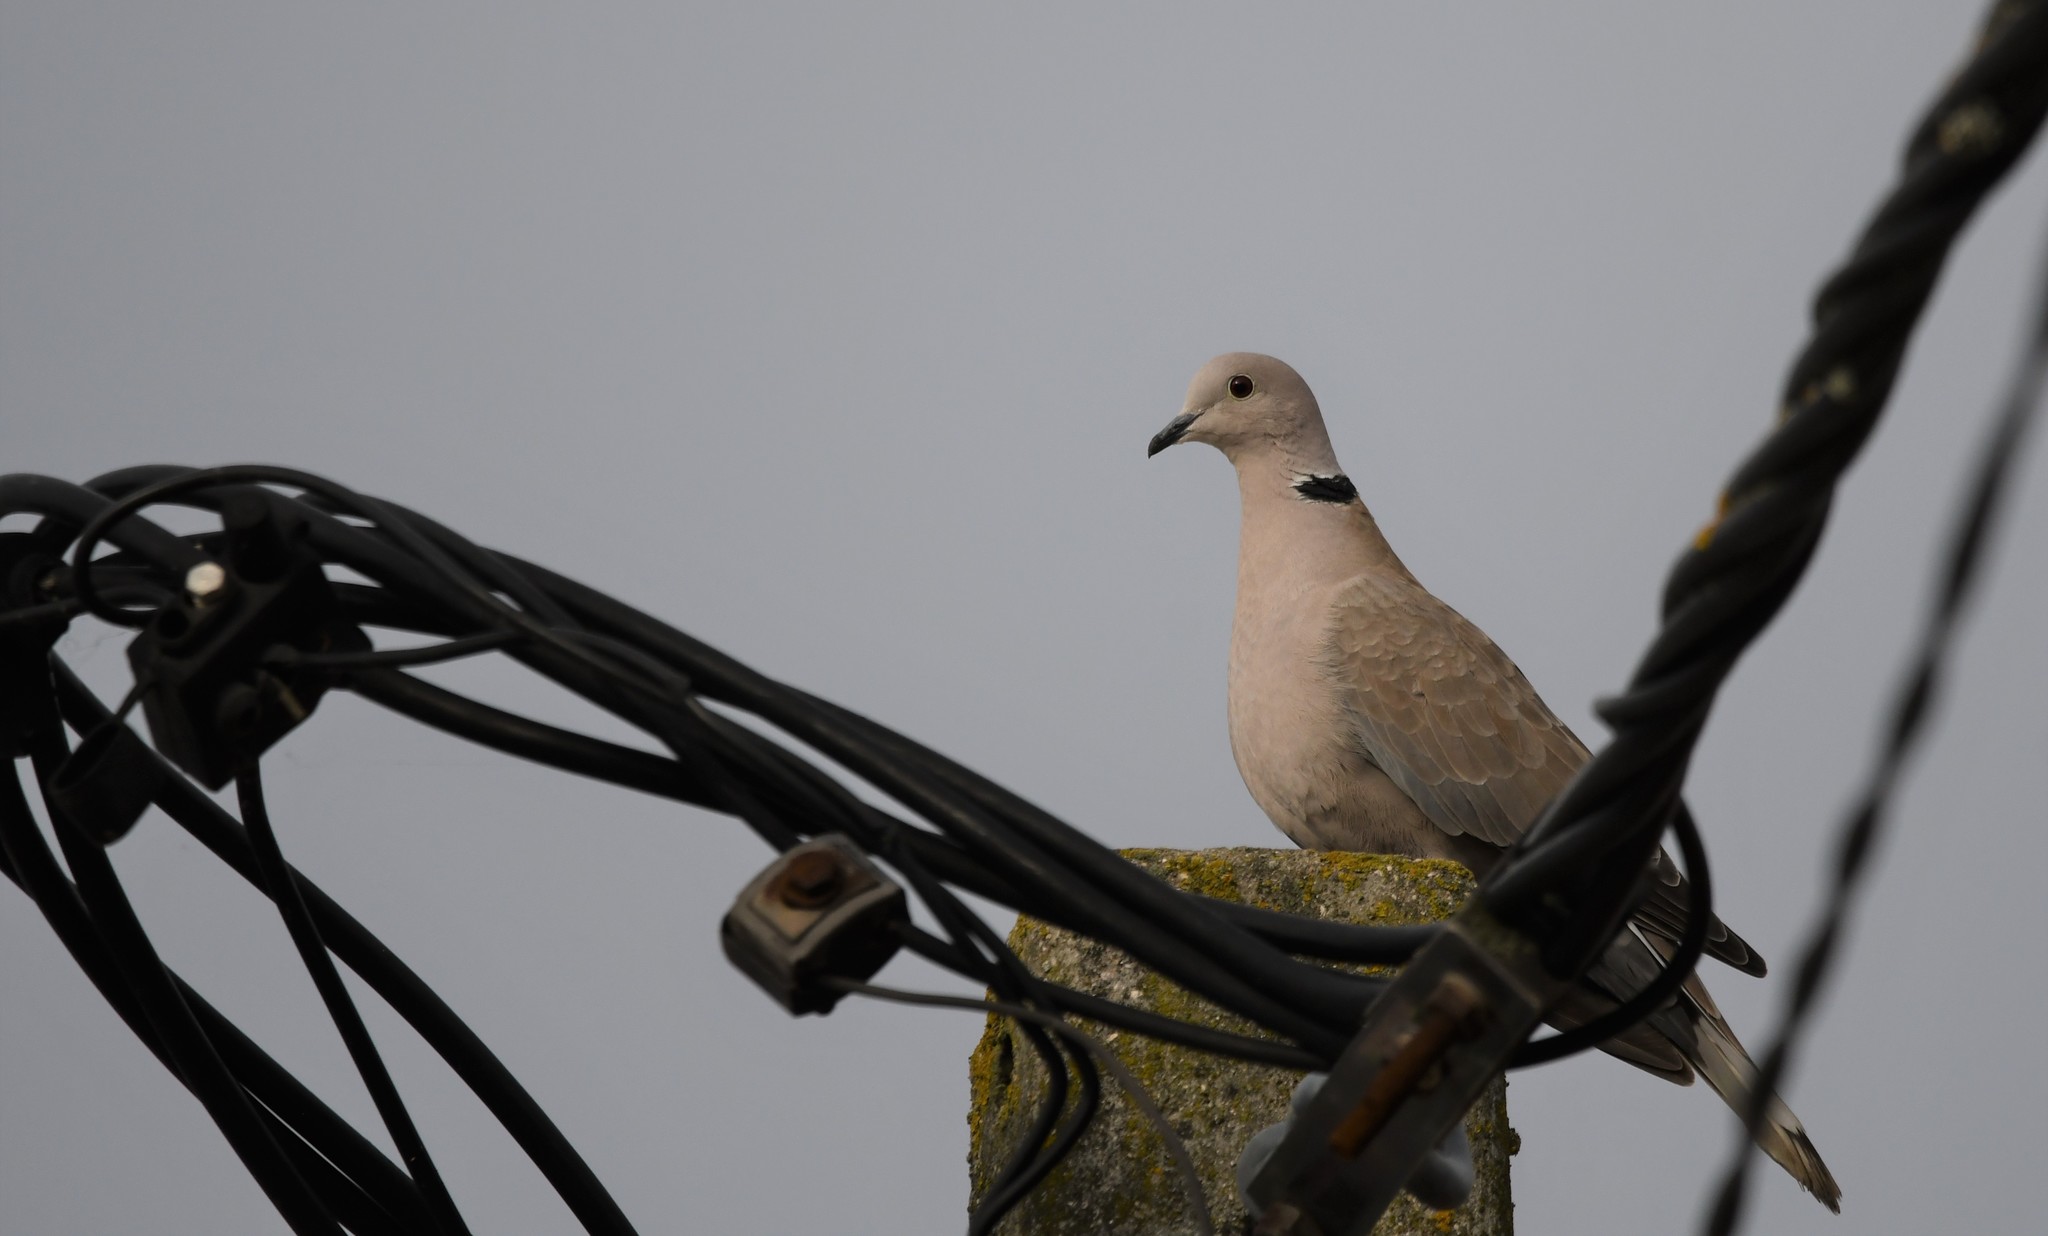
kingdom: Animalia
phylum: Chordata
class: Aves
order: Columbiformes
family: Columbidae
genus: Streptopelia
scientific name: Streptopelia decaocto
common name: Eurasian collared dove
